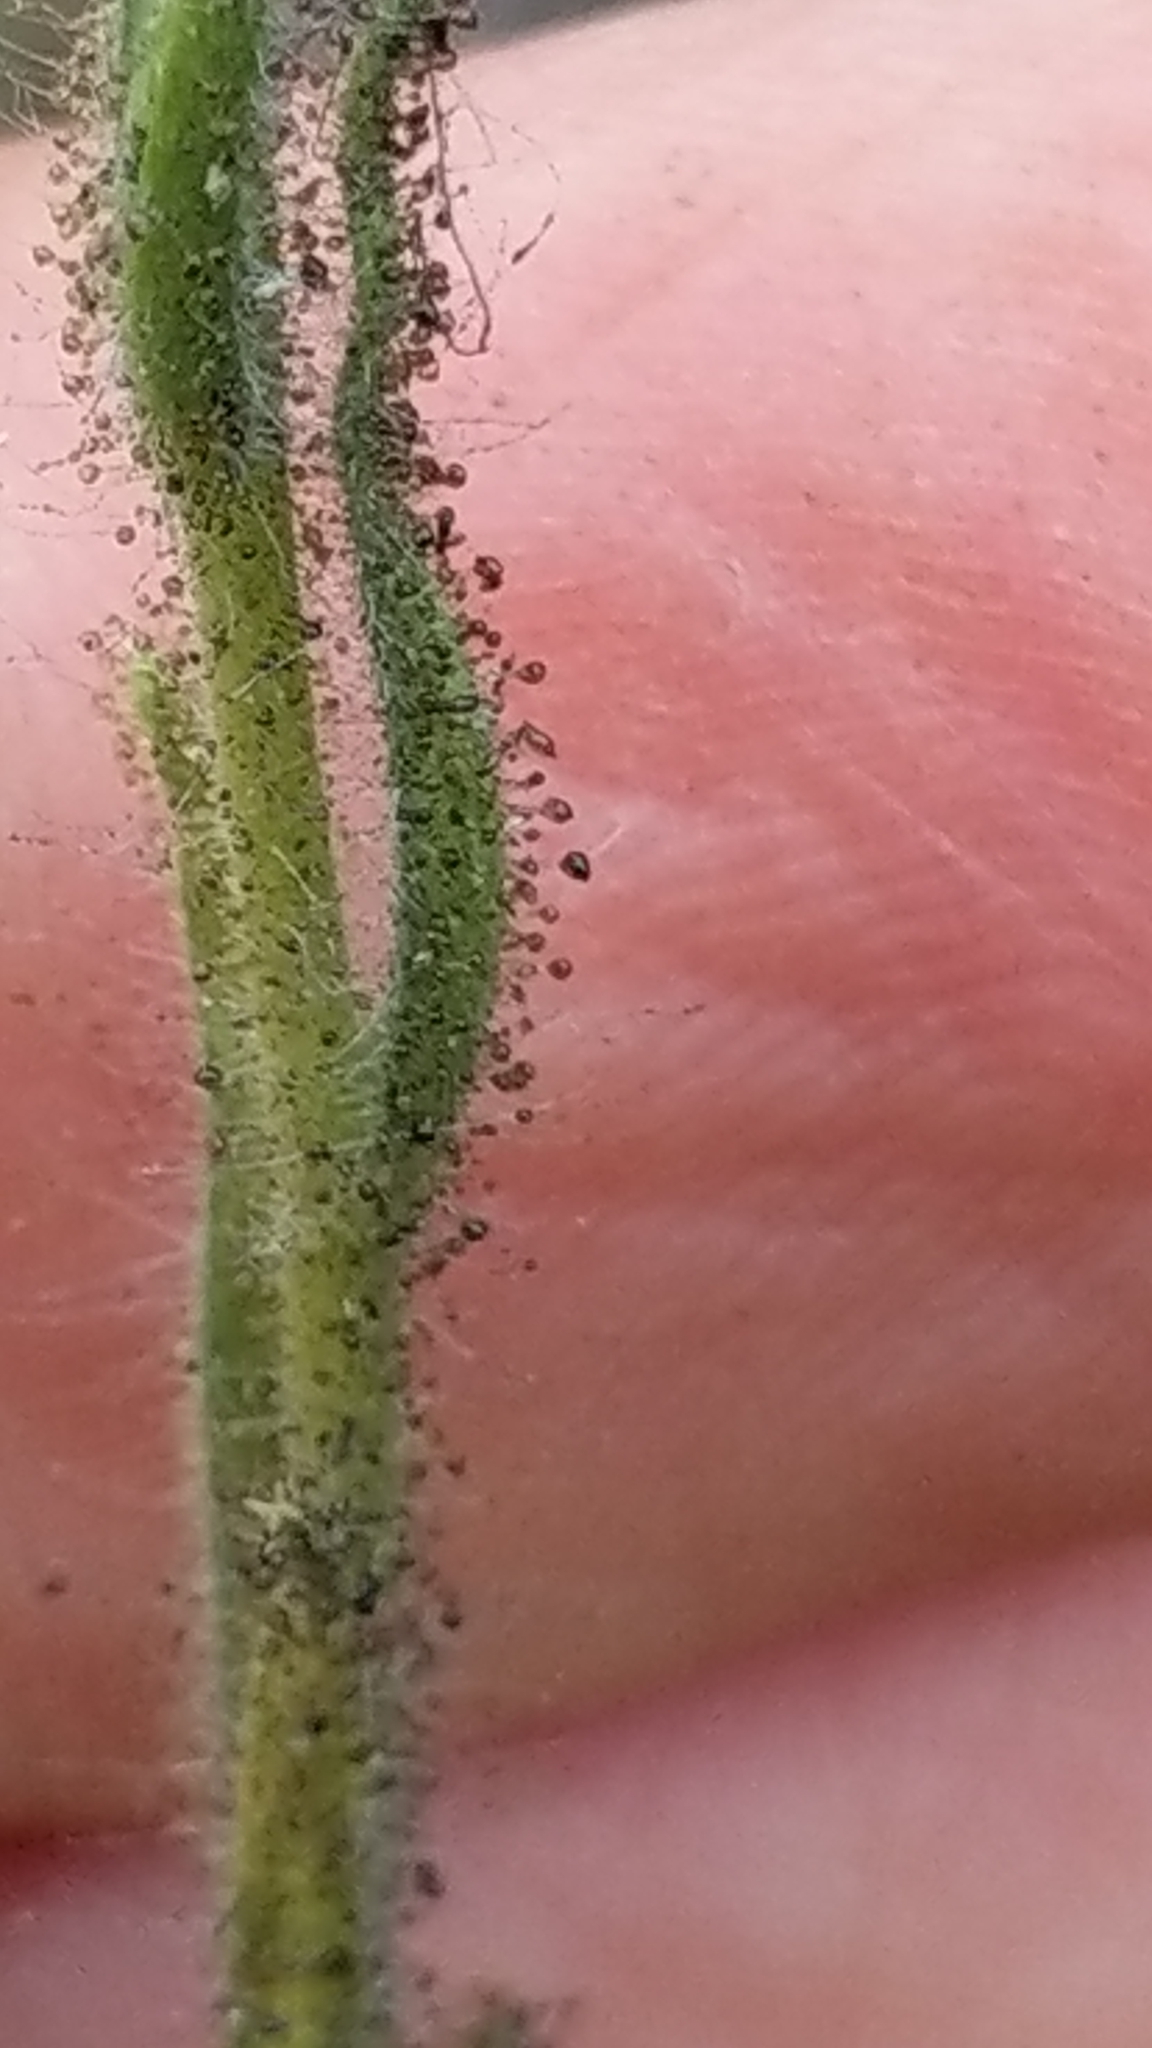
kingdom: Plantae
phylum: Tracheophyta
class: Magnoliopsida
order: Asterales
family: Asteraceae
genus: Madia
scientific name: Madia sativa
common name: Coast tarweed
